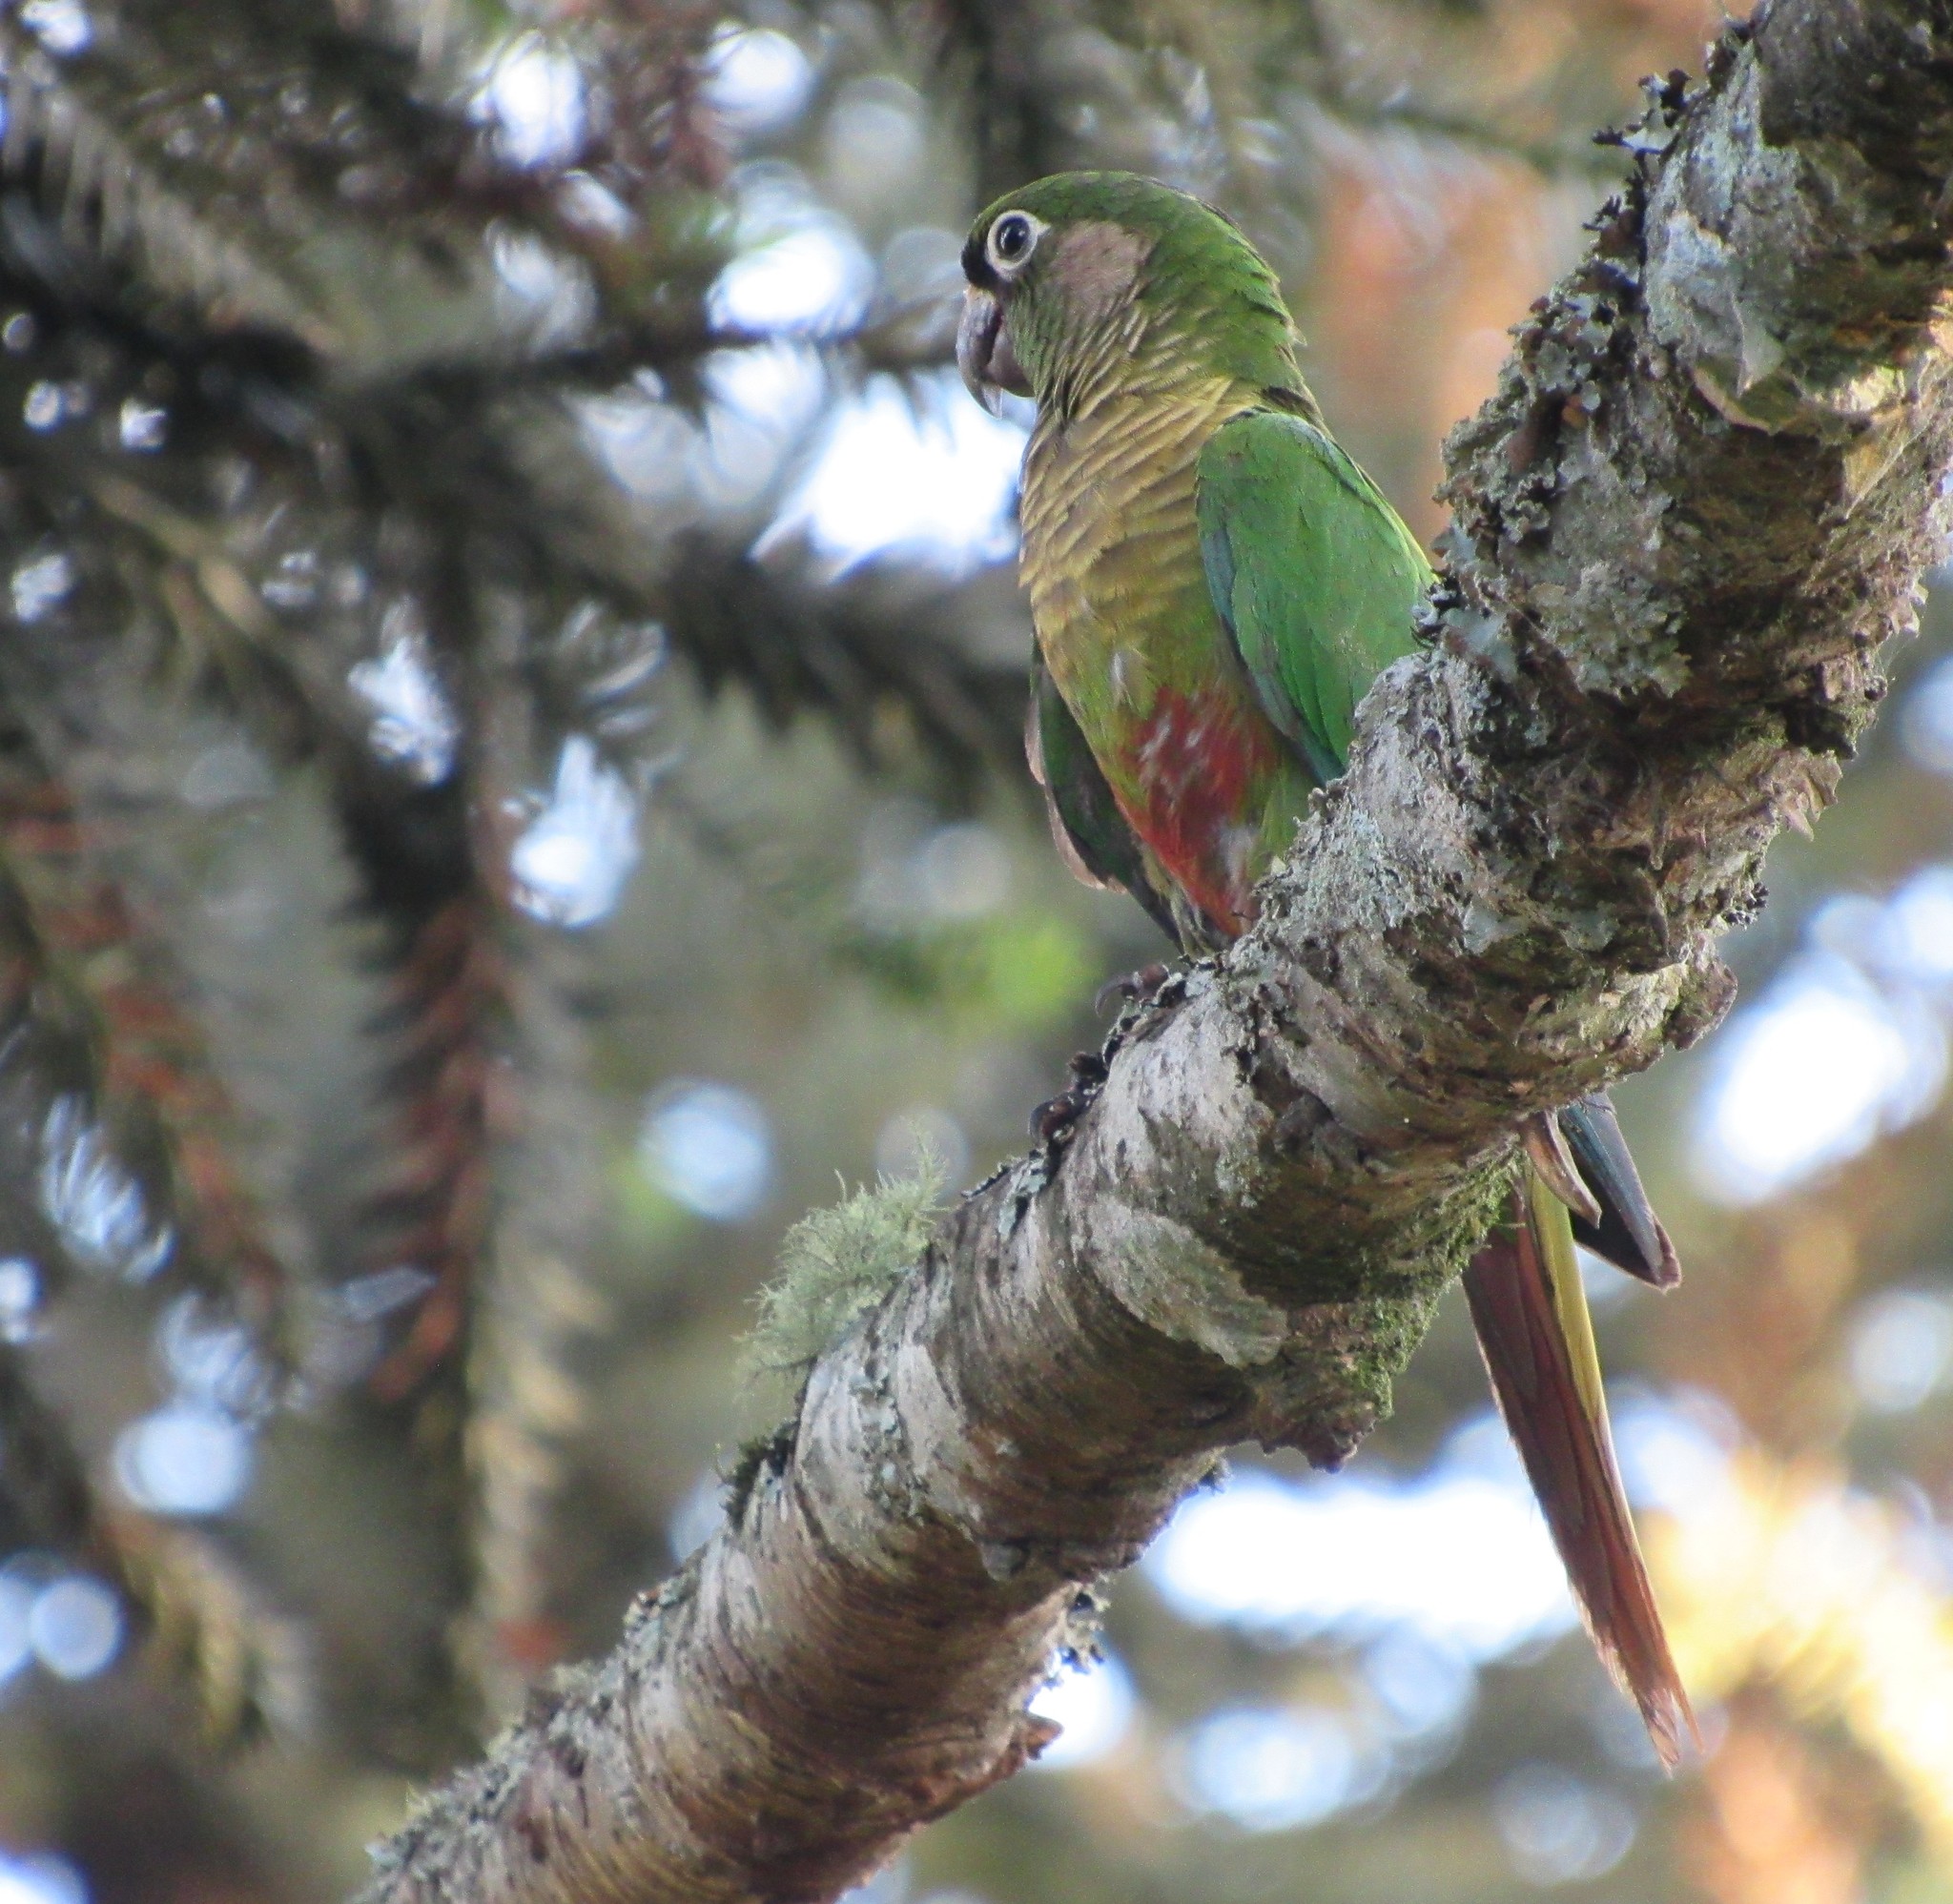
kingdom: Animalia
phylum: Chordata
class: Aves
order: Psittaciformes
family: Psittacidae
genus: Pyrrhura
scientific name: Pyrrhura frontalis
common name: Maroon-bellied parakeet
